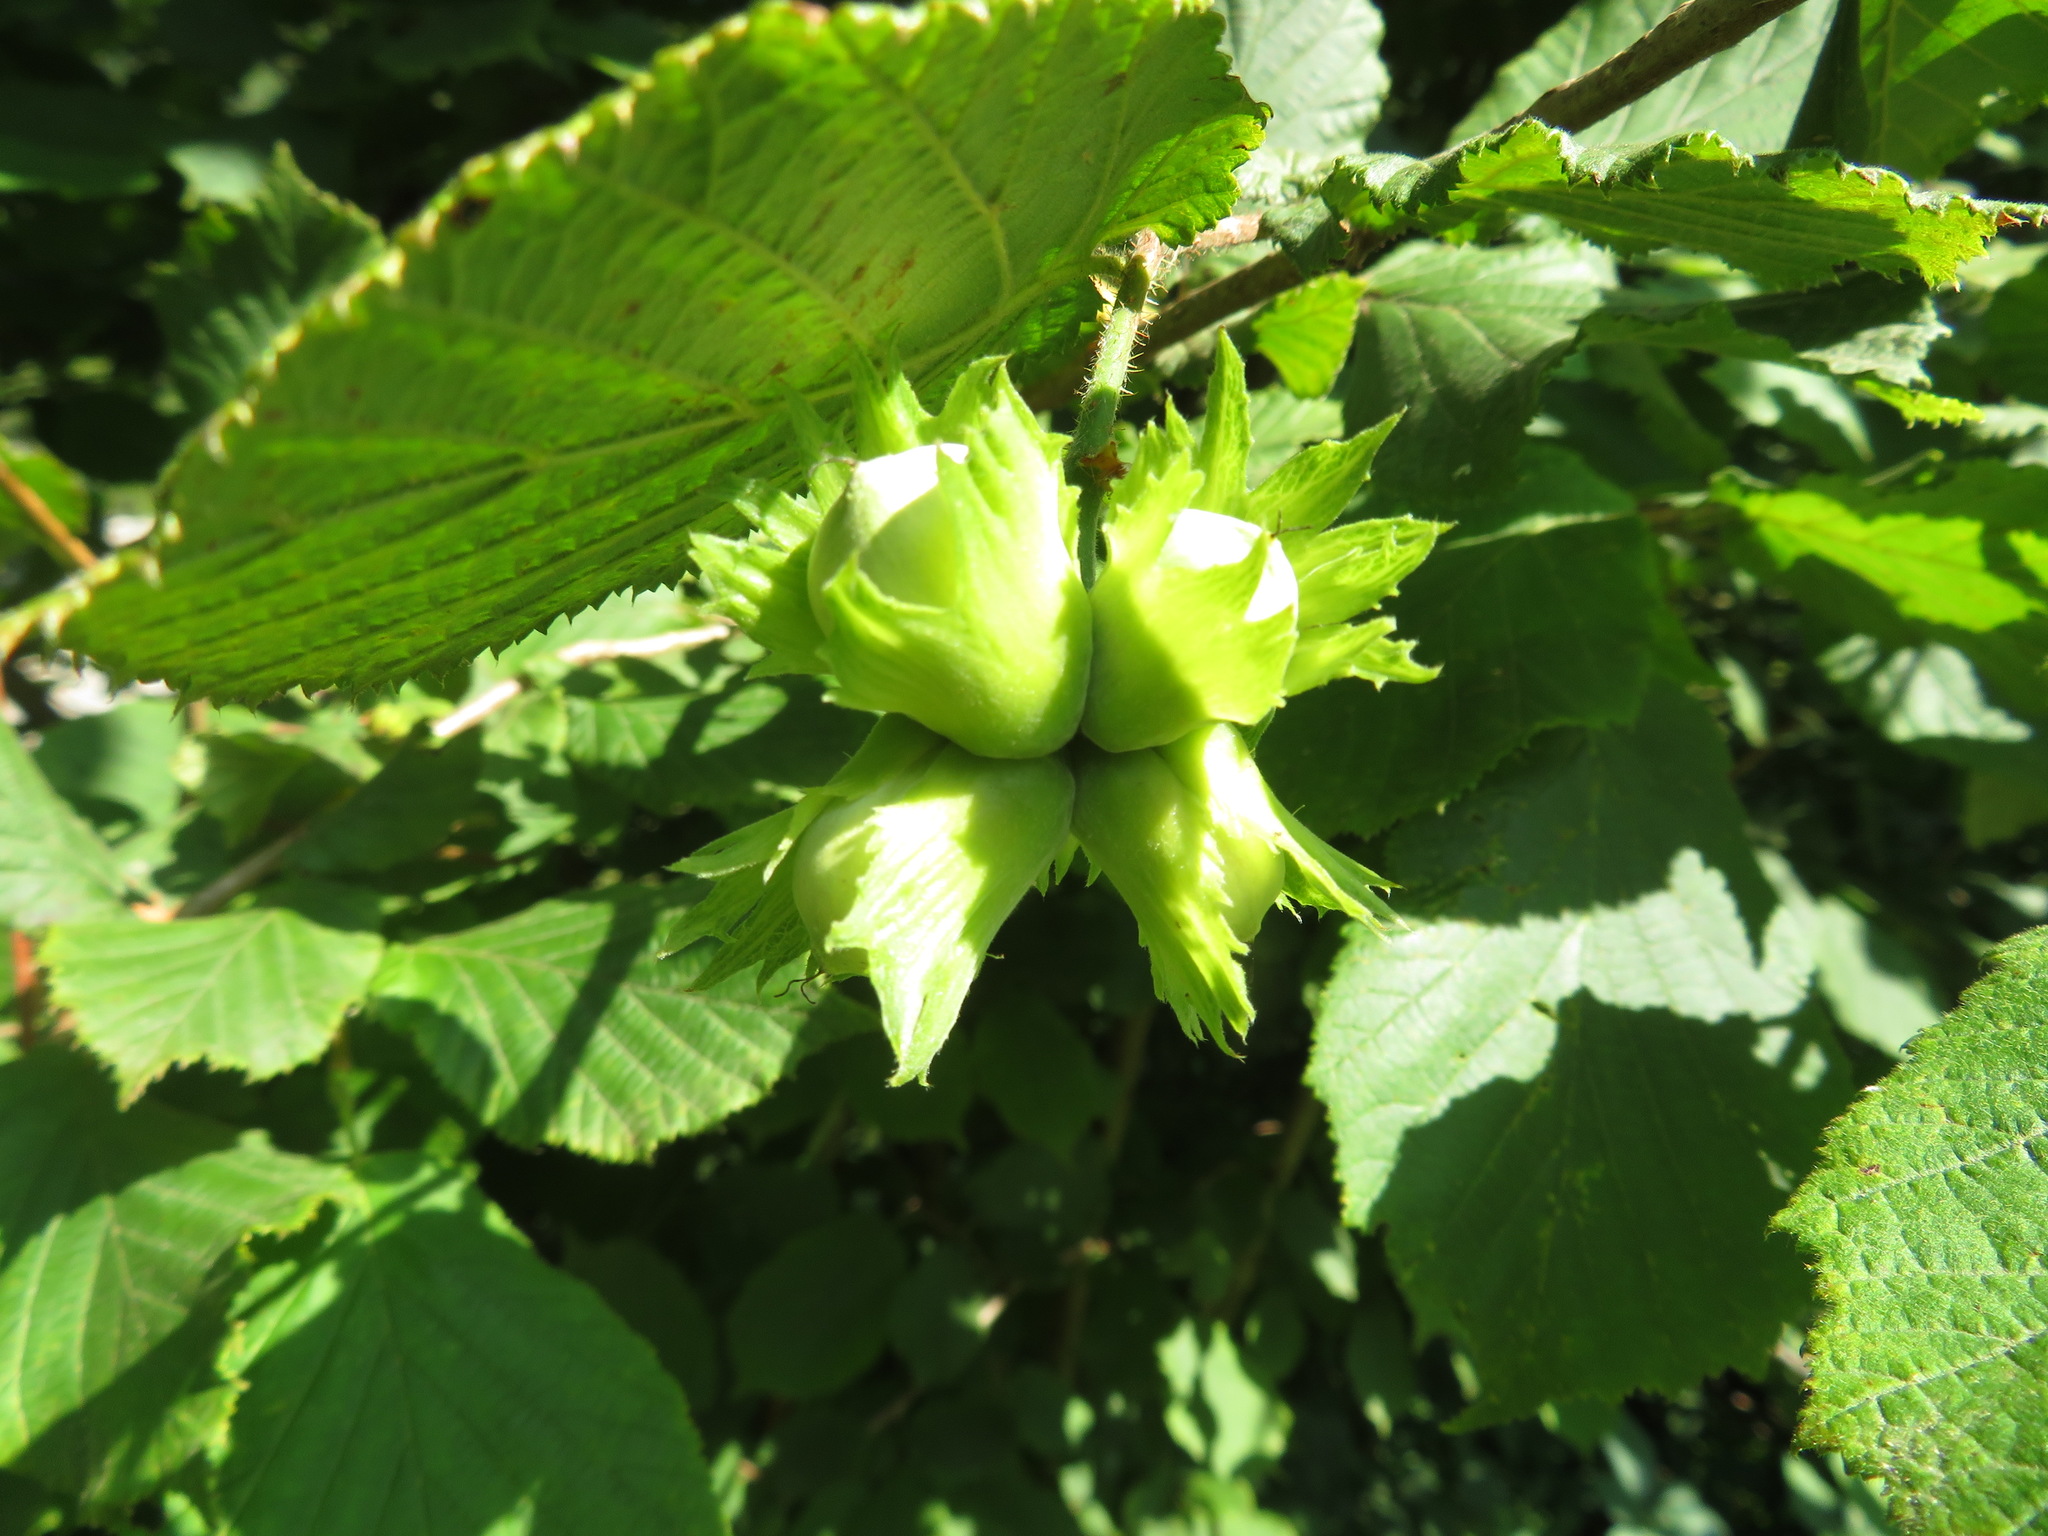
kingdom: Plantae
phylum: Tracheophyta
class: Magnoliopsida
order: Fagales
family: Betulaceae
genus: Corylus
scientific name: Corylus avellana
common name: European hazel
